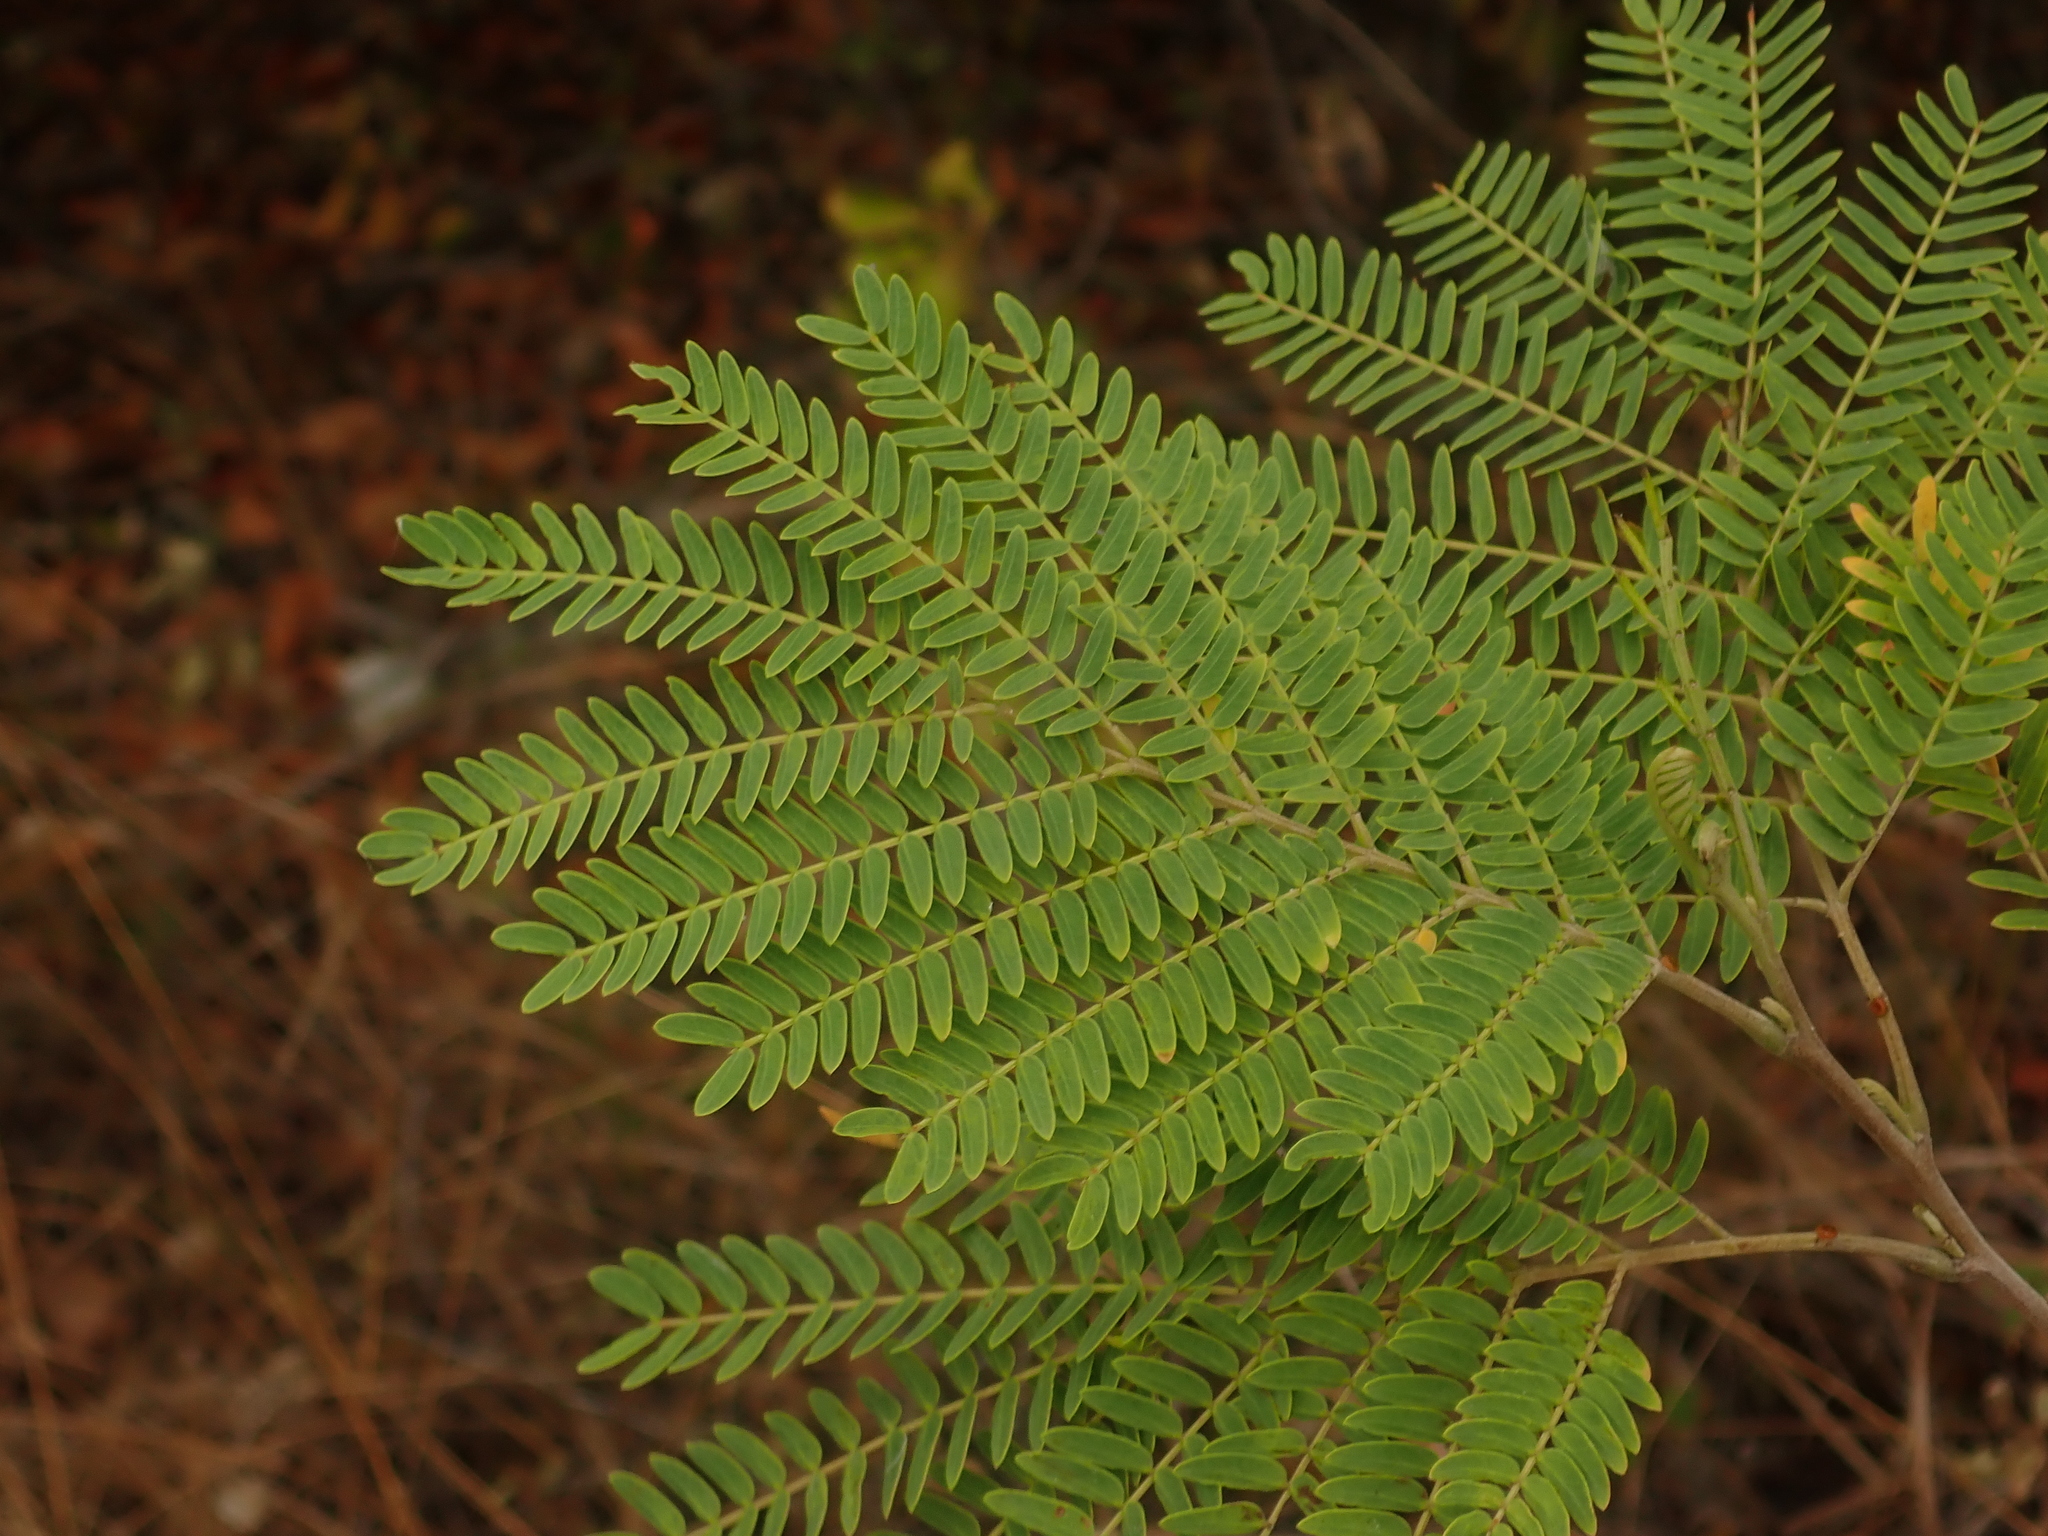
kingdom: Plantae
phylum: Tracheophyta
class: Magnoliopsida
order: Fabales
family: Fabaceae
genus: Leucaena
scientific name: Leucaena leucocephala
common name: White leadtree
